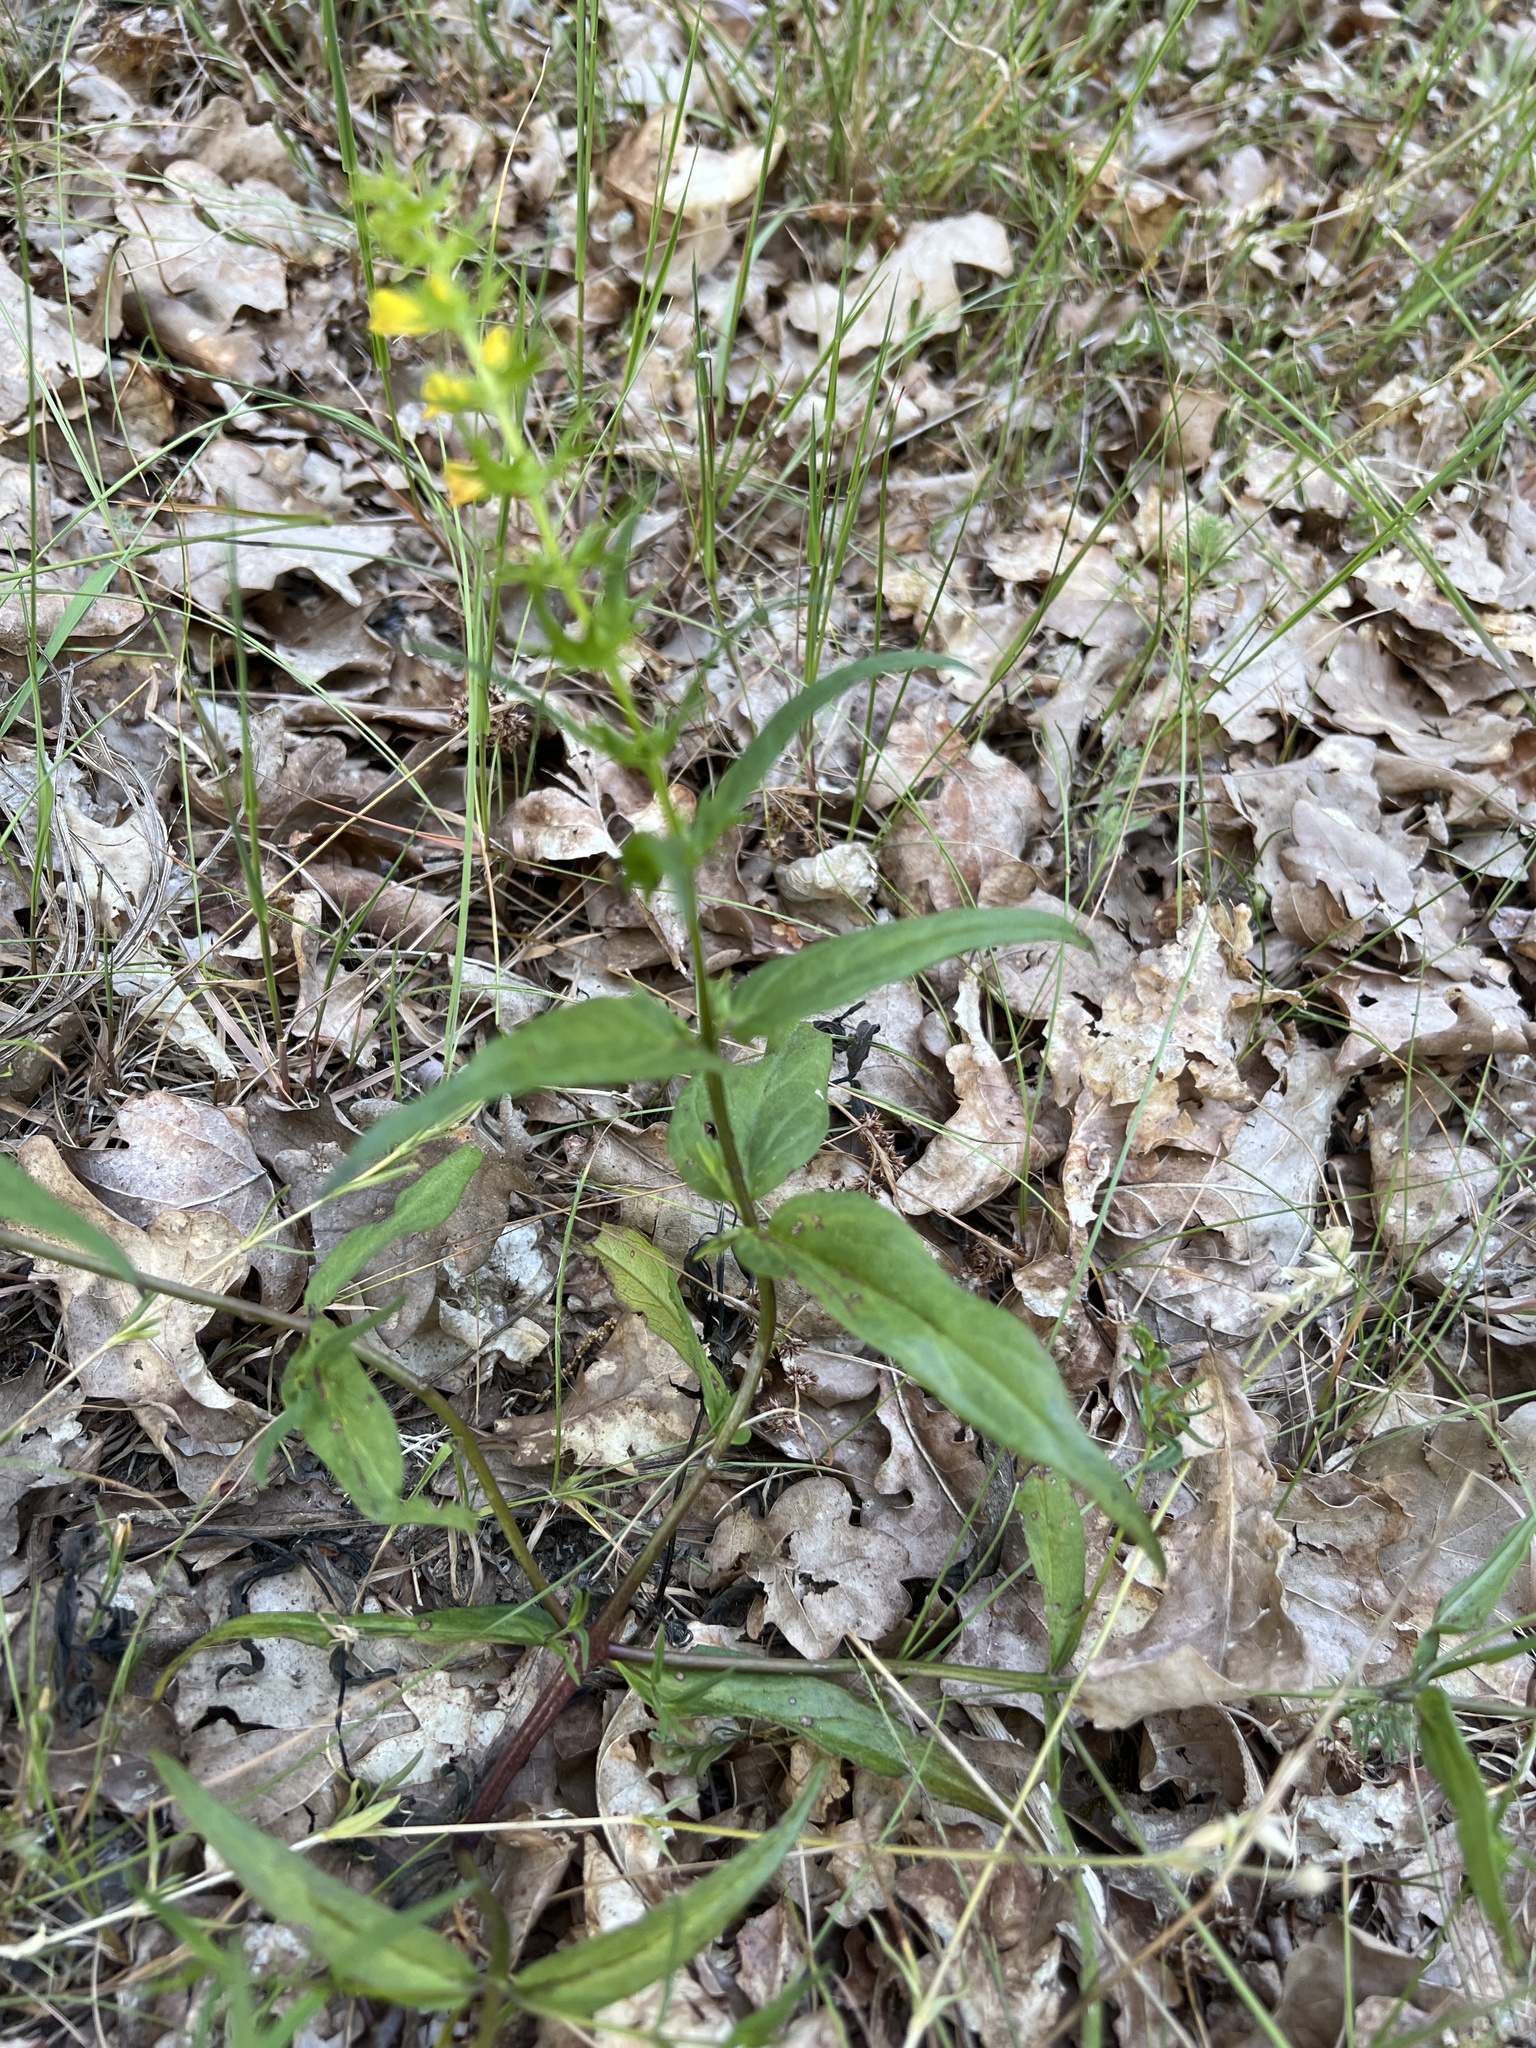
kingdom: Plantae
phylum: Tracheophyta
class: Magnoliopsida
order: Lamiales
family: Orobanchaceae
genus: Melampyrum
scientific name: Melampyrum pratense
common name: Common cow-wheat
